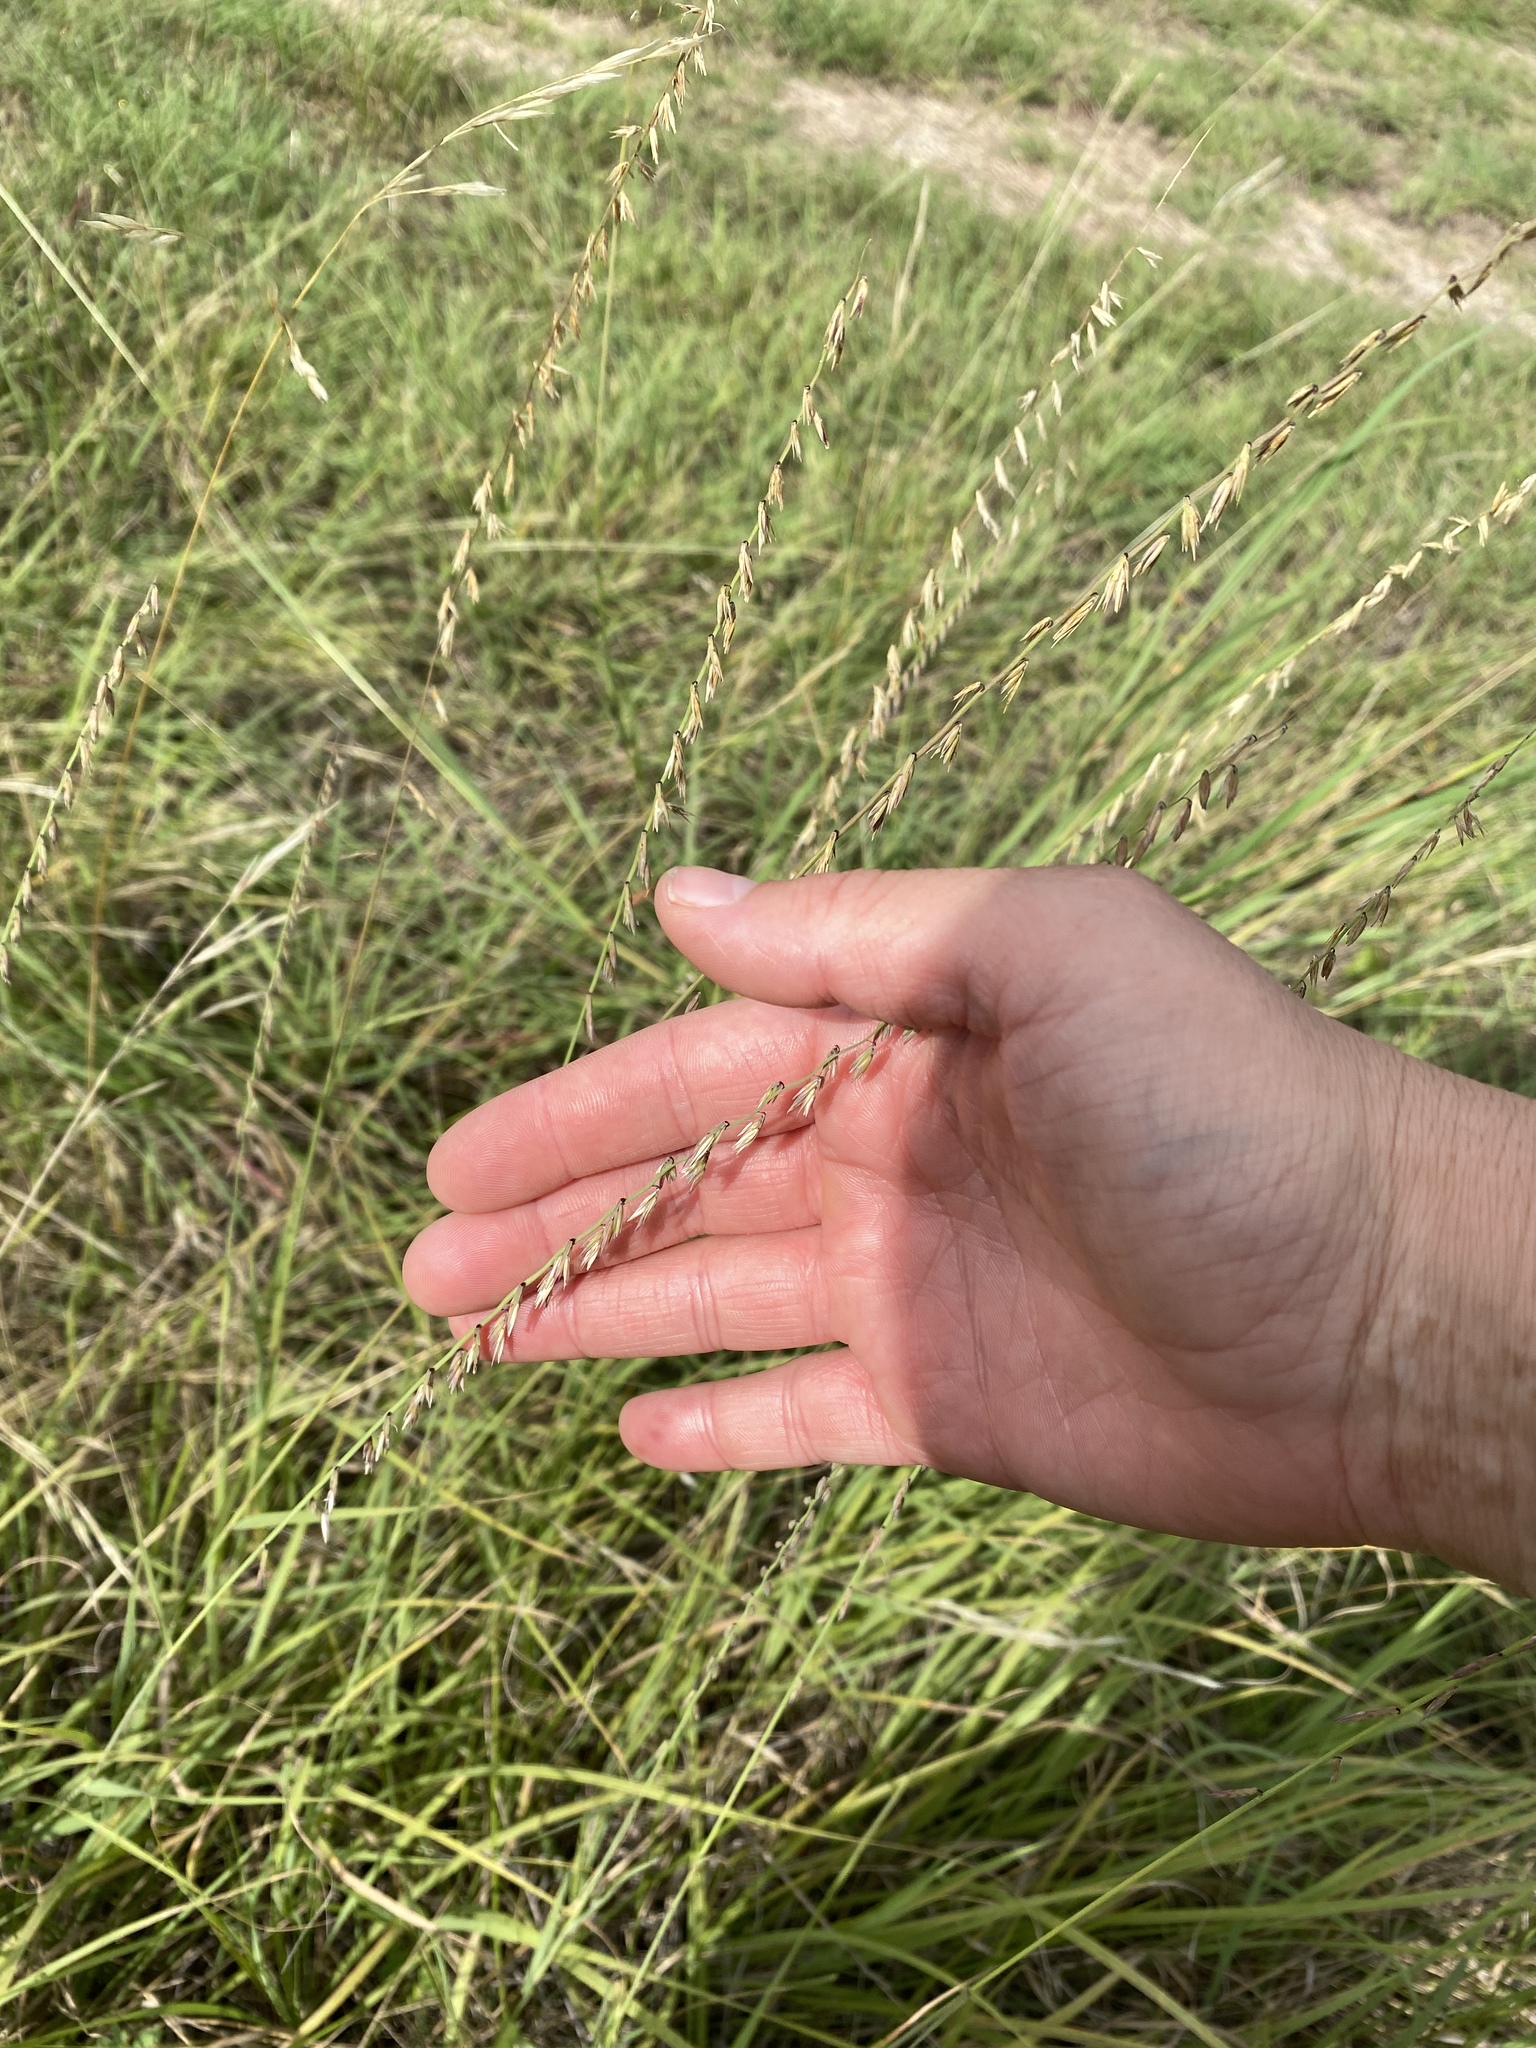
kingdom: Plantae
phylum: Tracheophyta
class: Liliopsida
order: Poales
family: Poaceae
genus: Bouteloua
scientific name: Bouteloua curtipendula
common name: Side-oats grama
